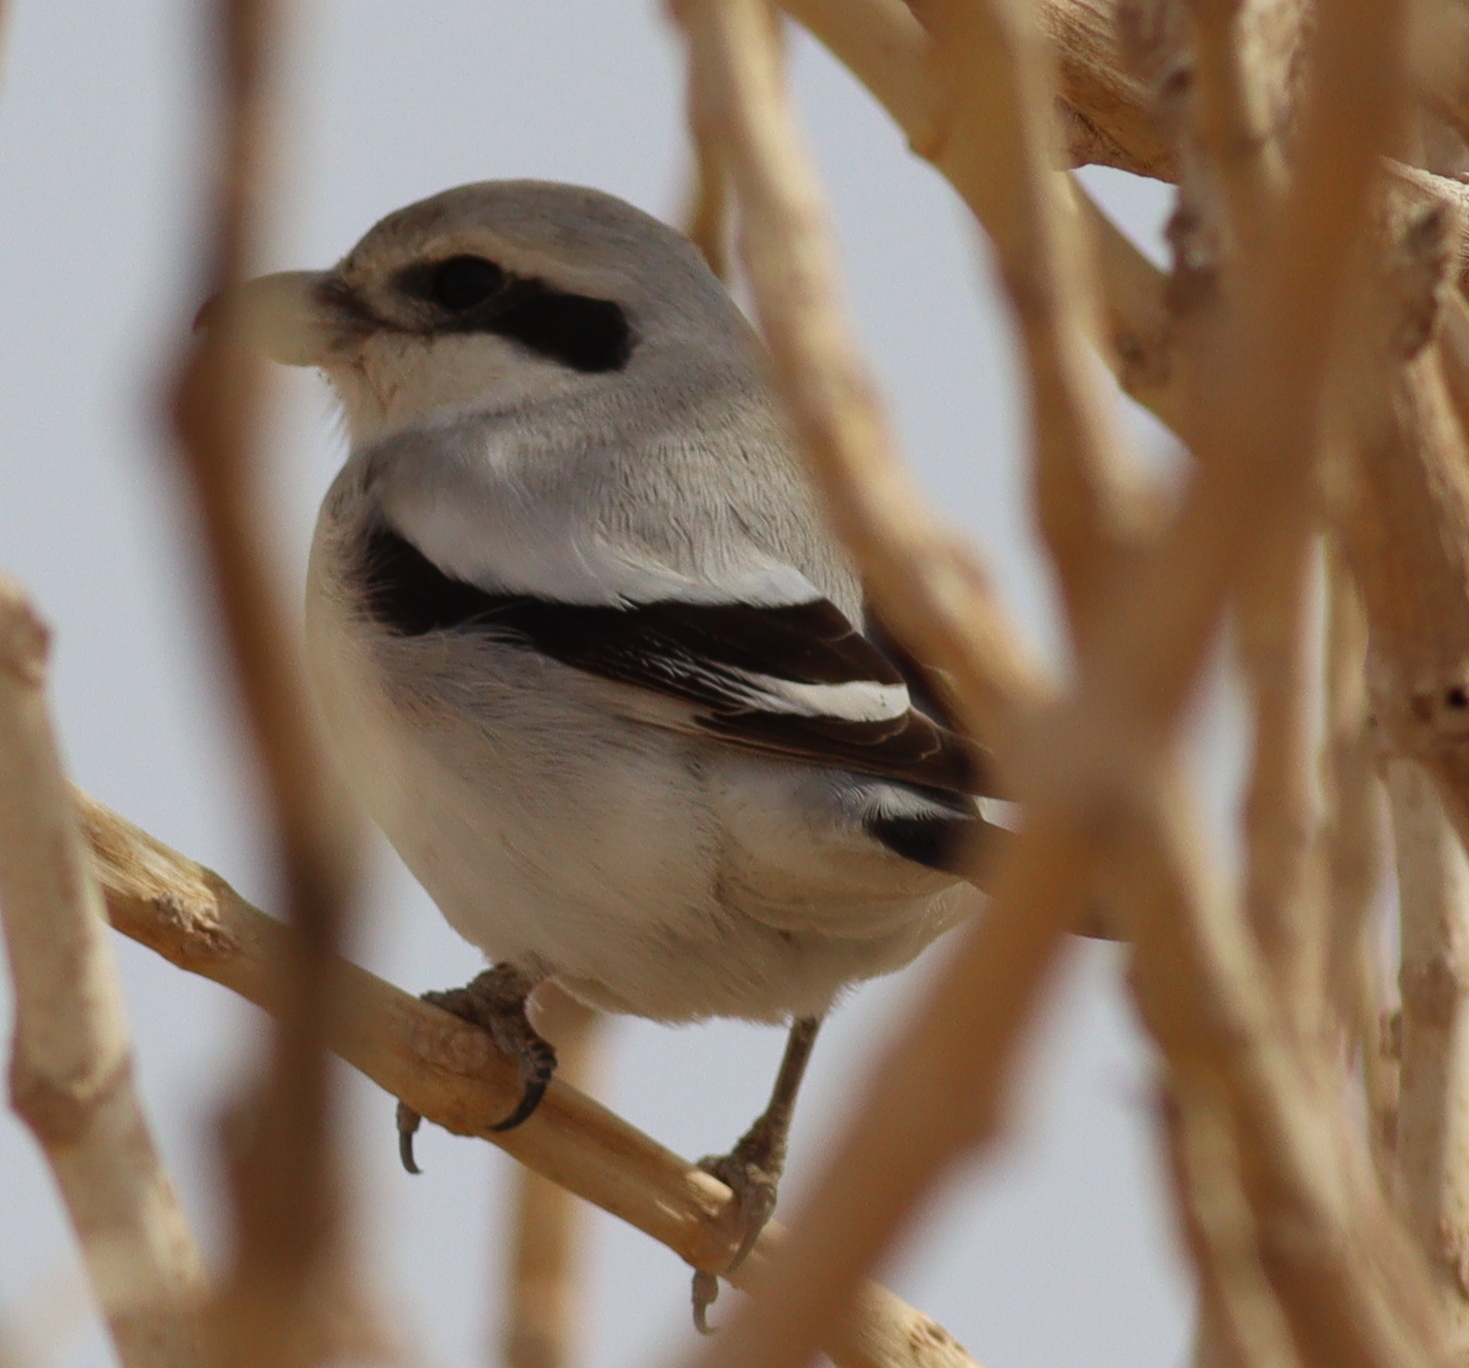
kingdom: Animalia
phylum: Chordata
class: Aves
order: Passeriformes
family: Laniidae
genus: Lanius
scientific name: Lanius excubitor
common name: Great grey shrike
